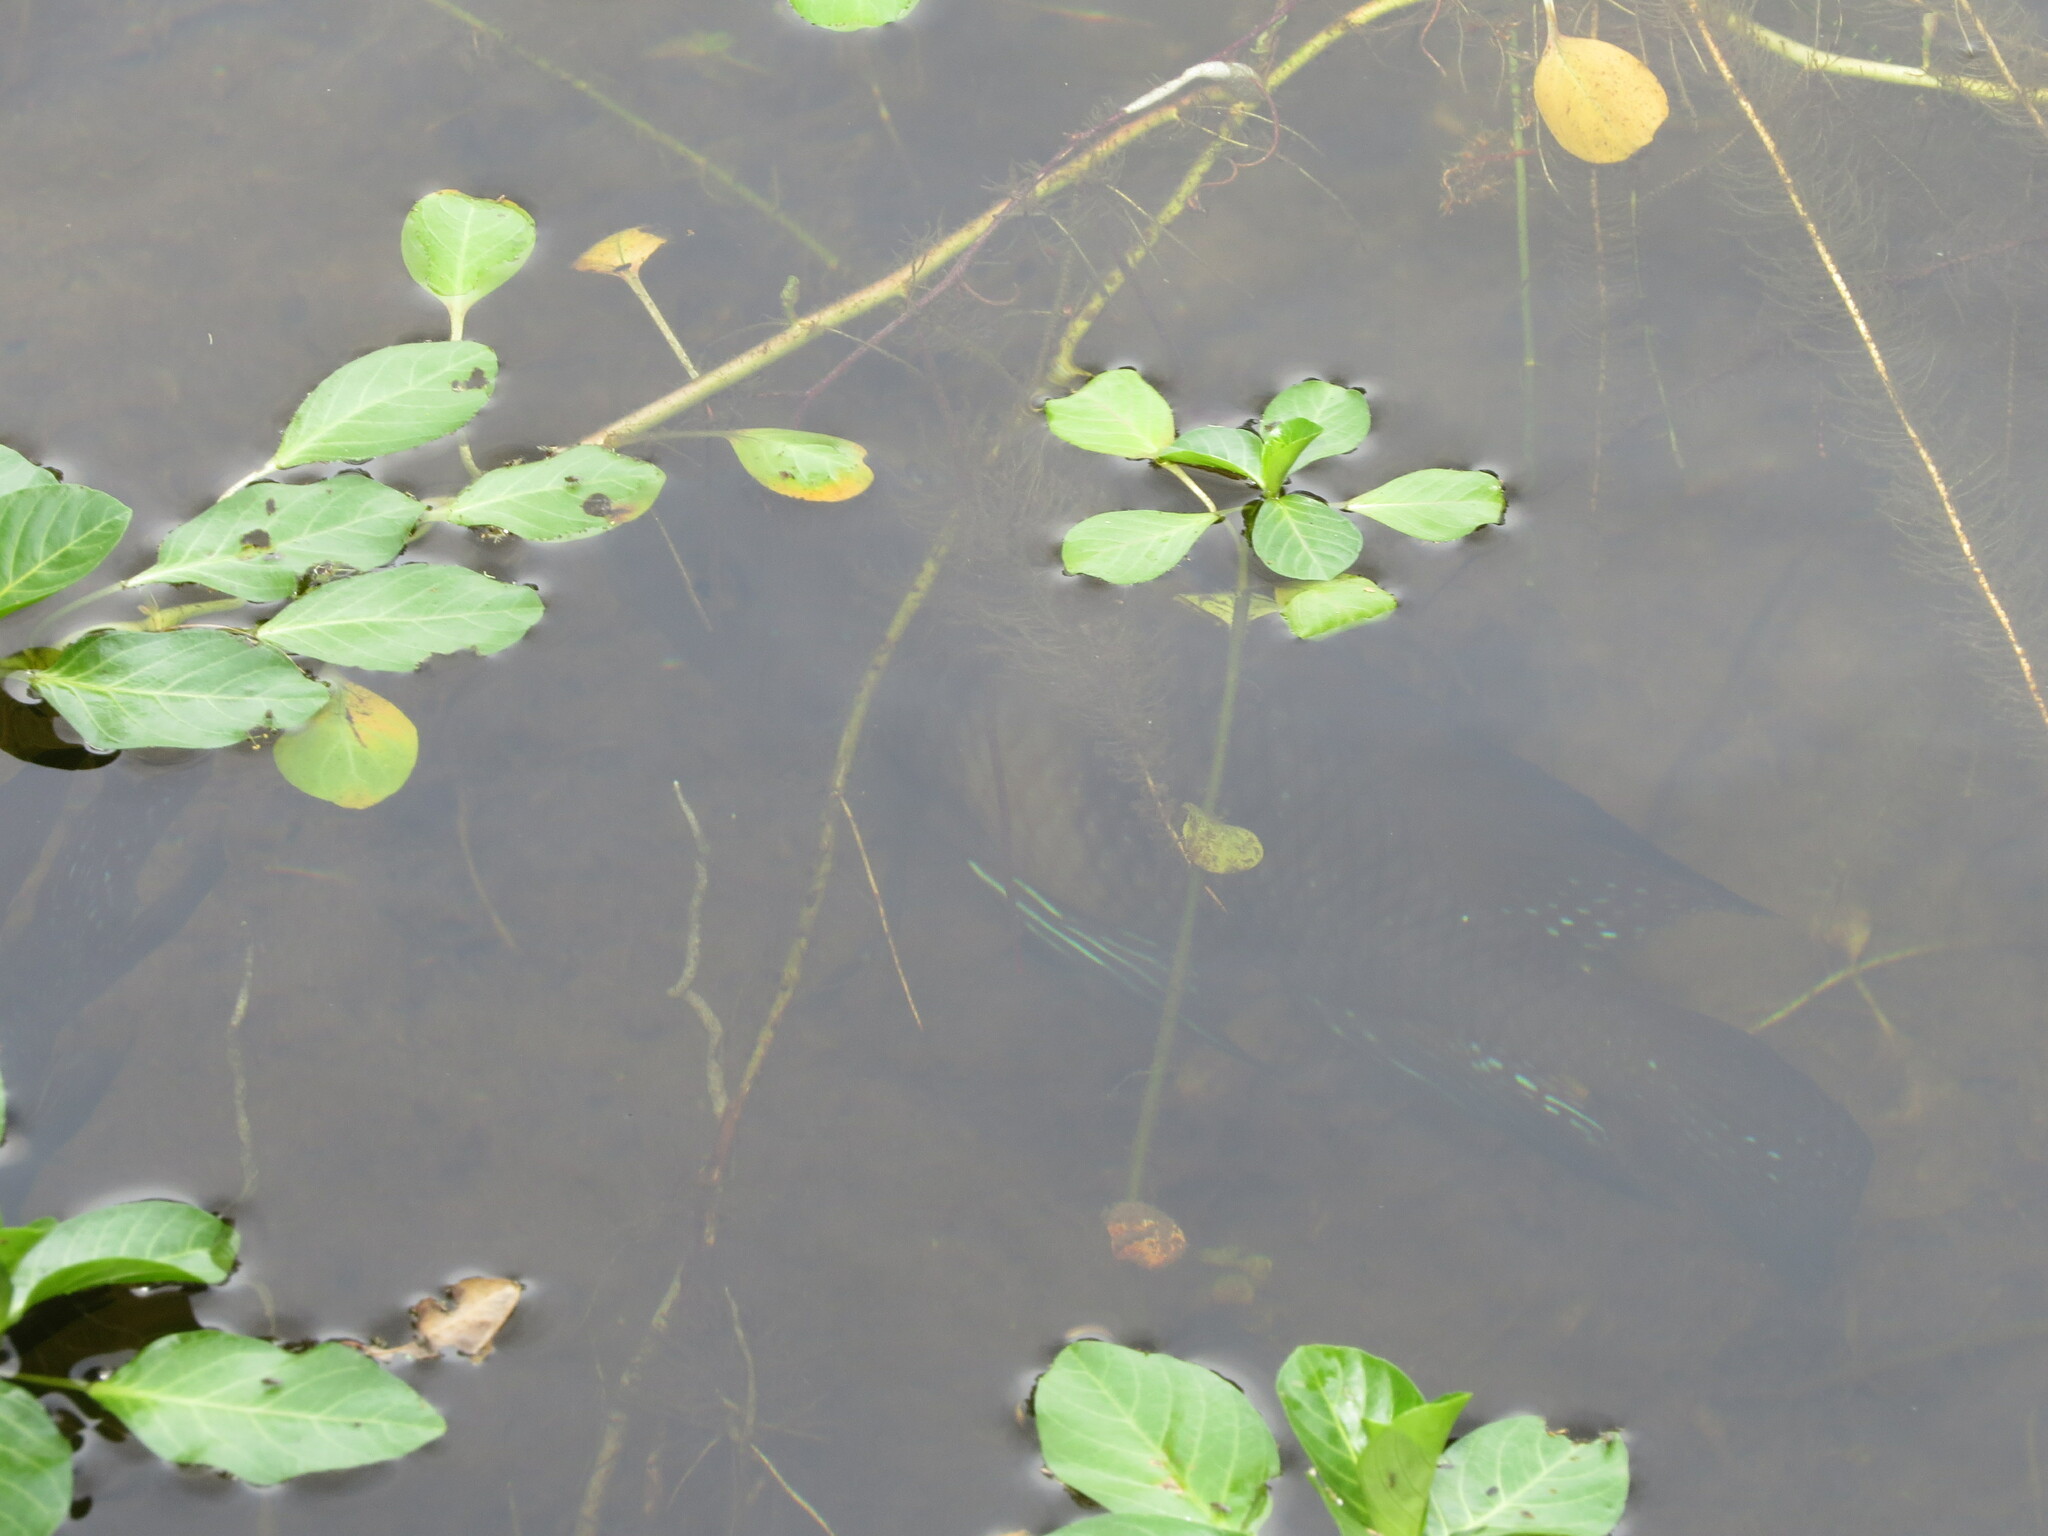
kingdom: Animalia
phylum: Chordata
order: Perciformes
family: Cichlidae
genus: Geophagus
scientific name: Geophagus iporangensis
